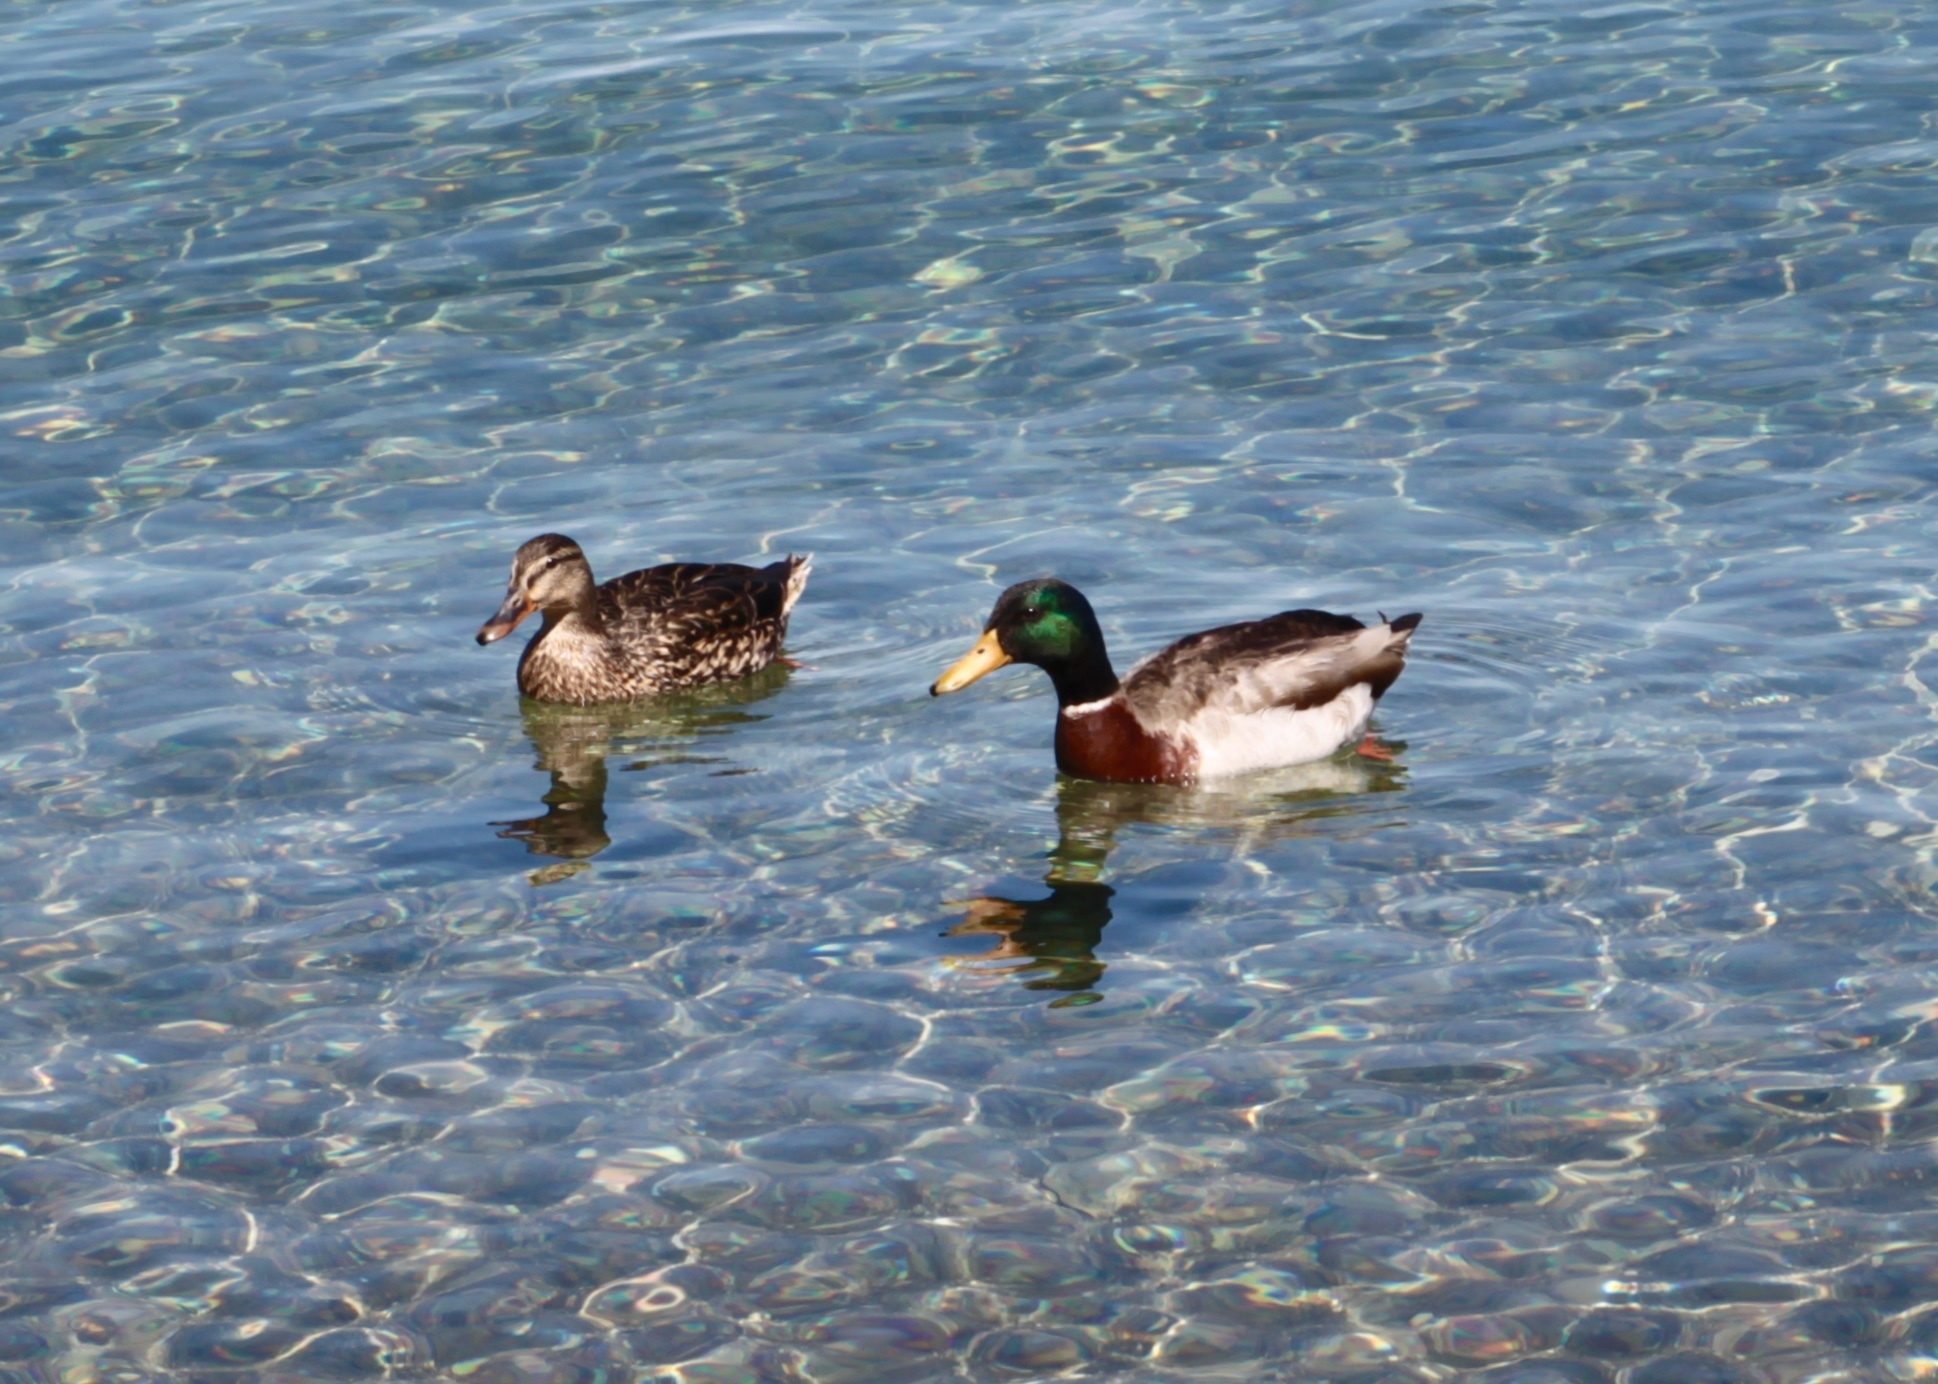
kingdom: Animalia
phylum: Chordata
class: Aves
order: Anseriformes
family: Anatidae
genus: Anas
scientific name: Anas platyrhynchos
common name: Mallard
